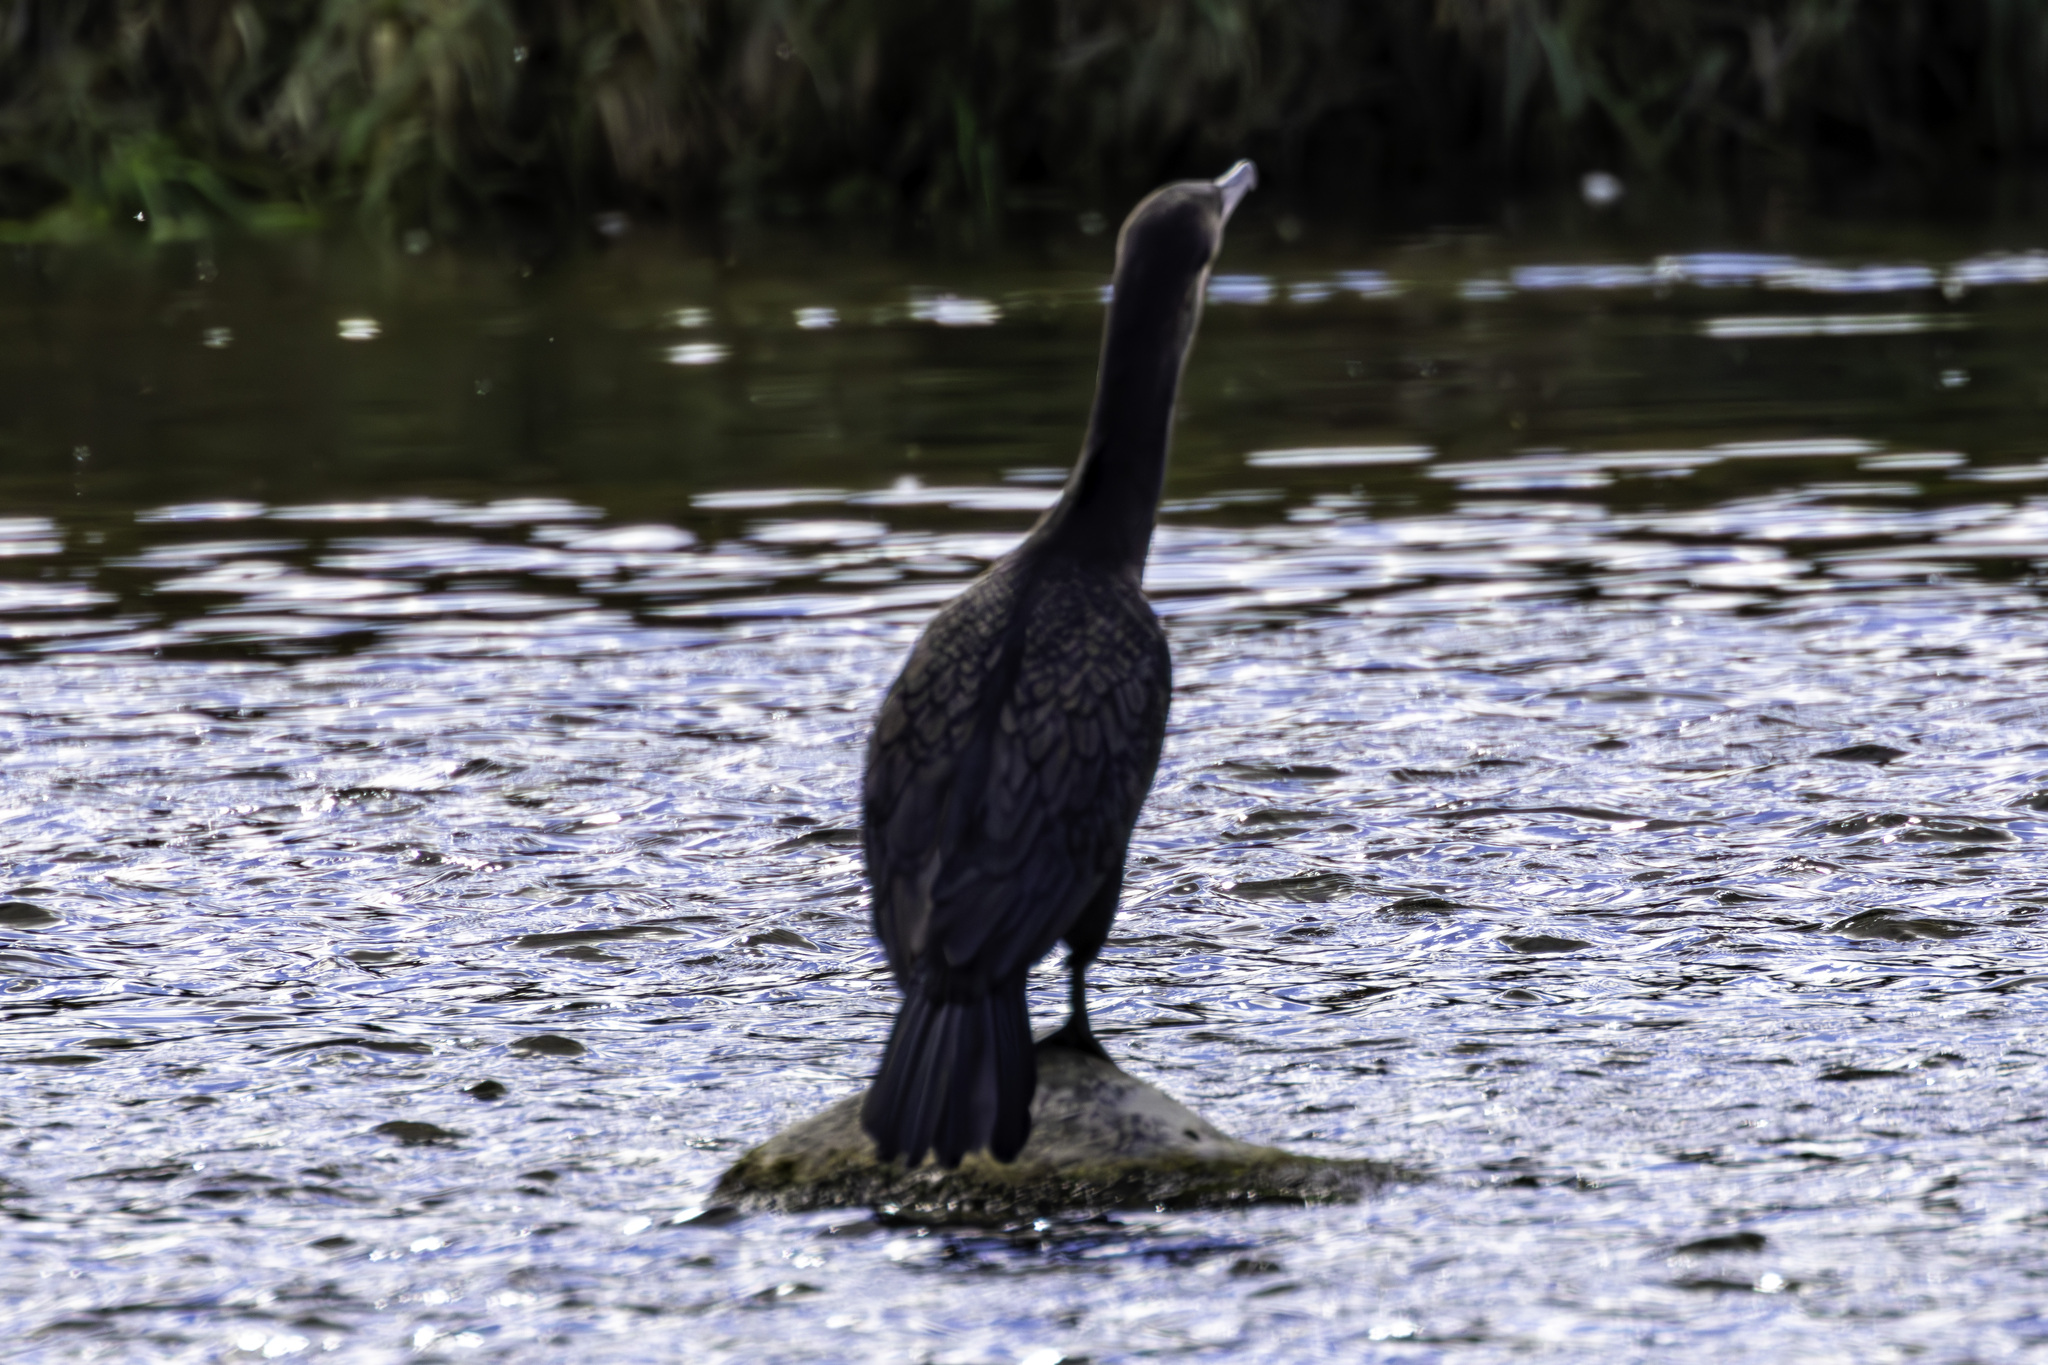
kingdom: Animalia
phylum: Chordata
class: Aves
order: Suliformes
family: Phalacrocoracidae
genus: Phalacrocorax
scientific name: Phalacrocorax auritus
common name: Double-crested cormorant
